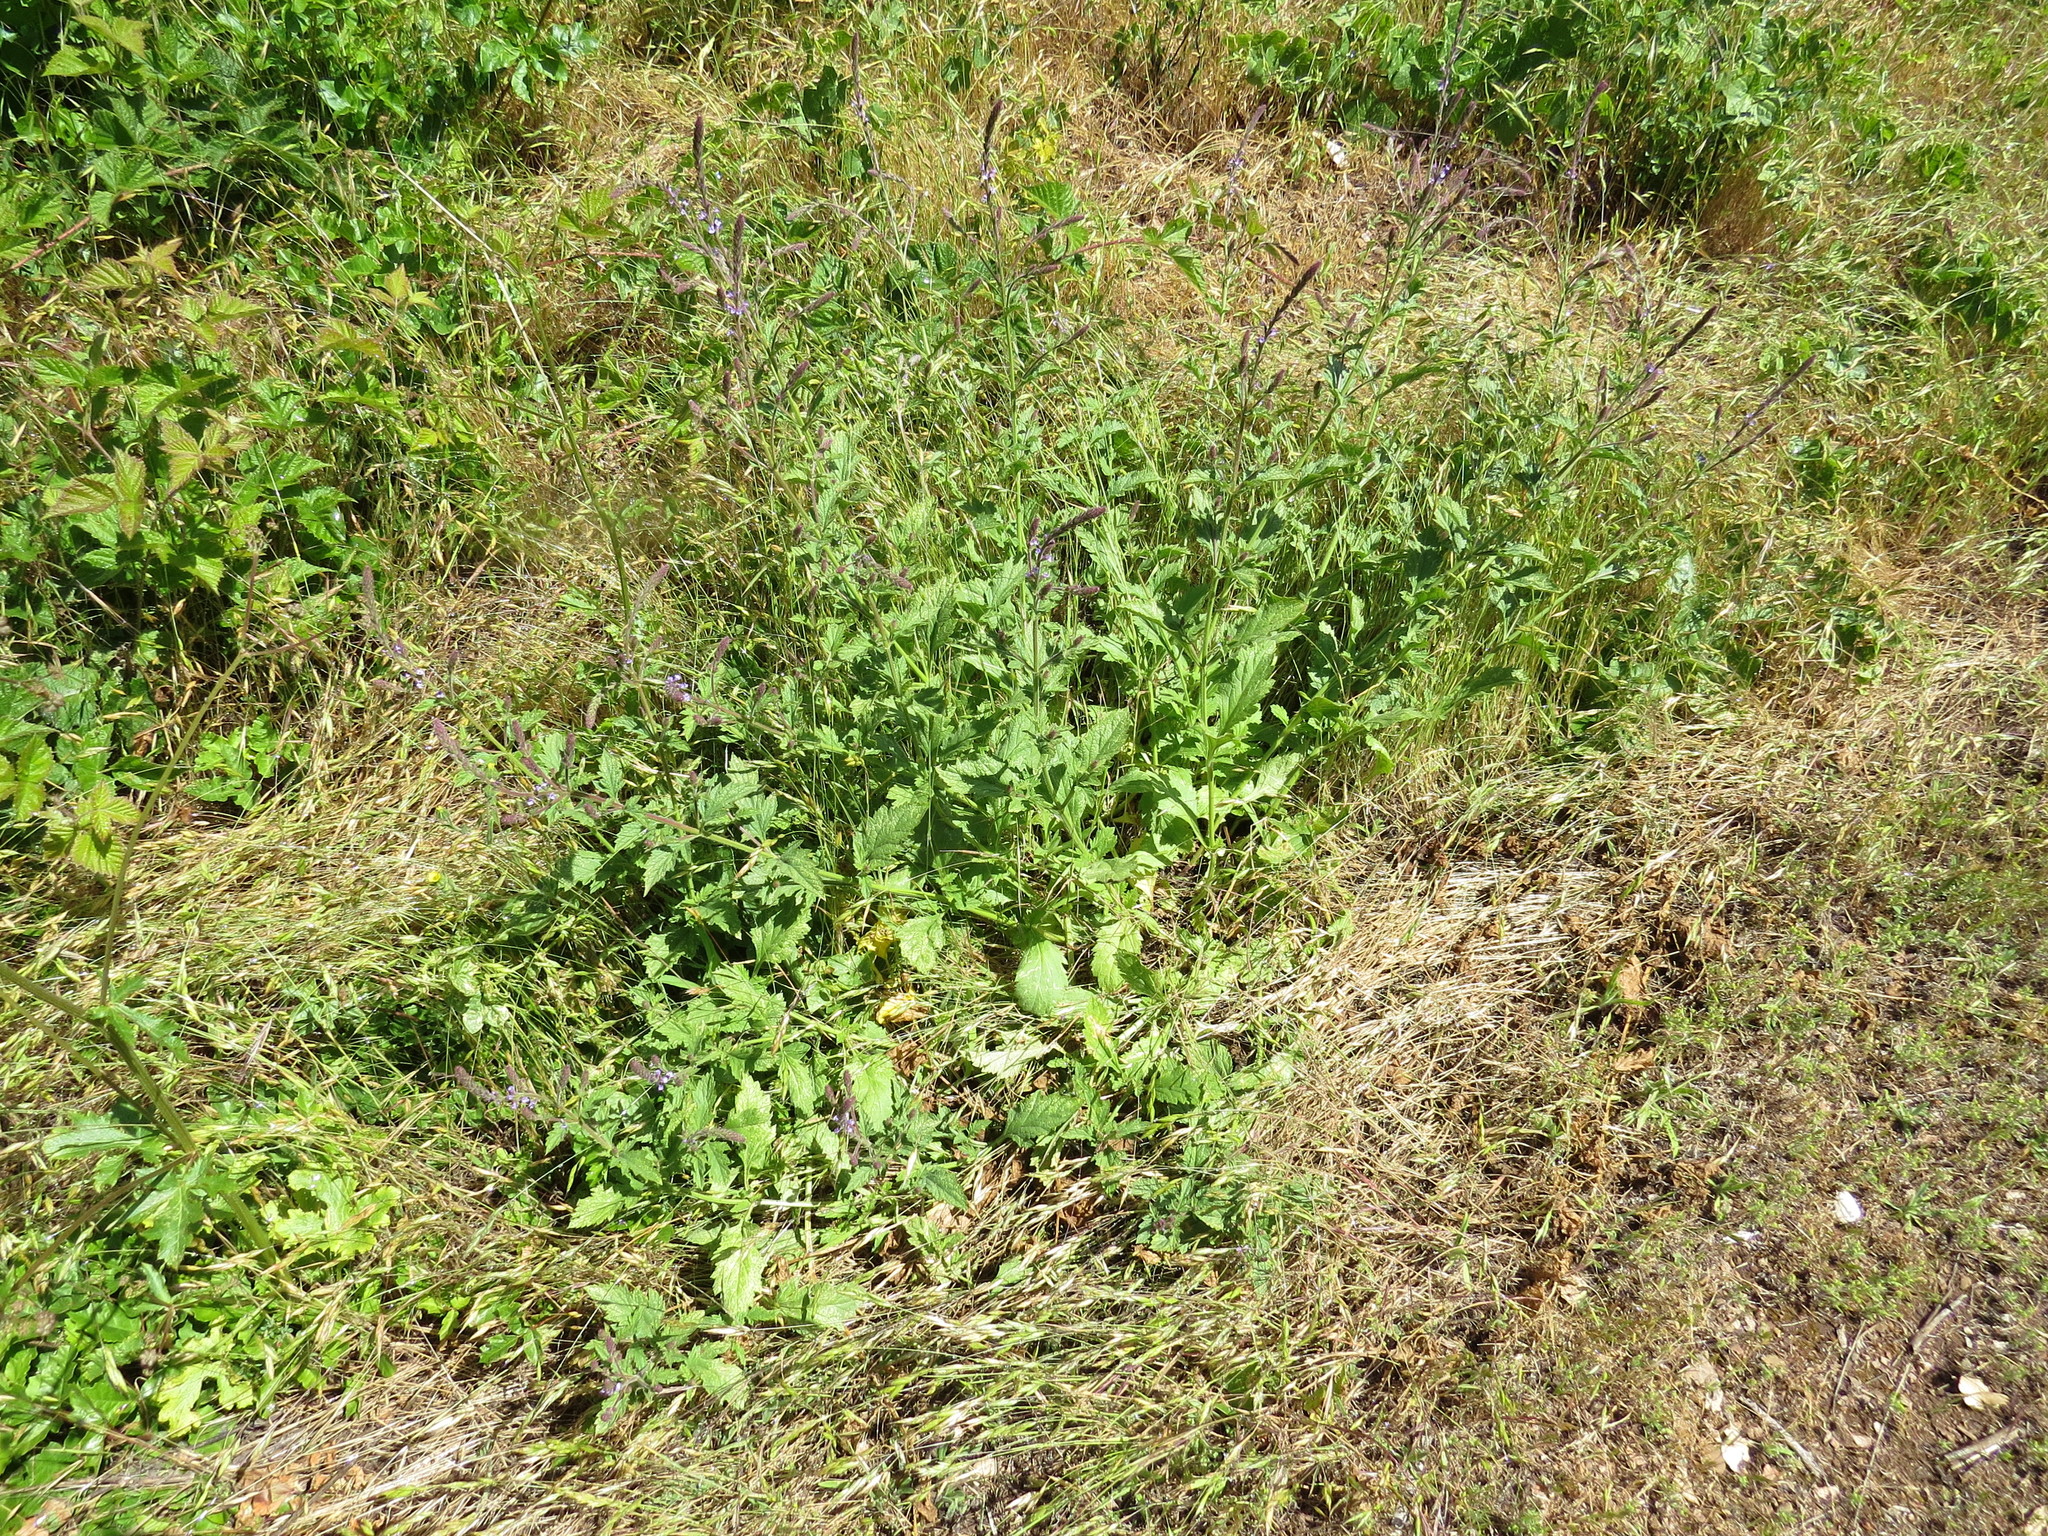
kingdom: Plantae
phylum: Tracheophyta
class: Magnoliopsida
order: Lamiales
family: Verbenaceae
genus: Verbena
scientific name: Verbena lasiostachys
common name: Vervain
